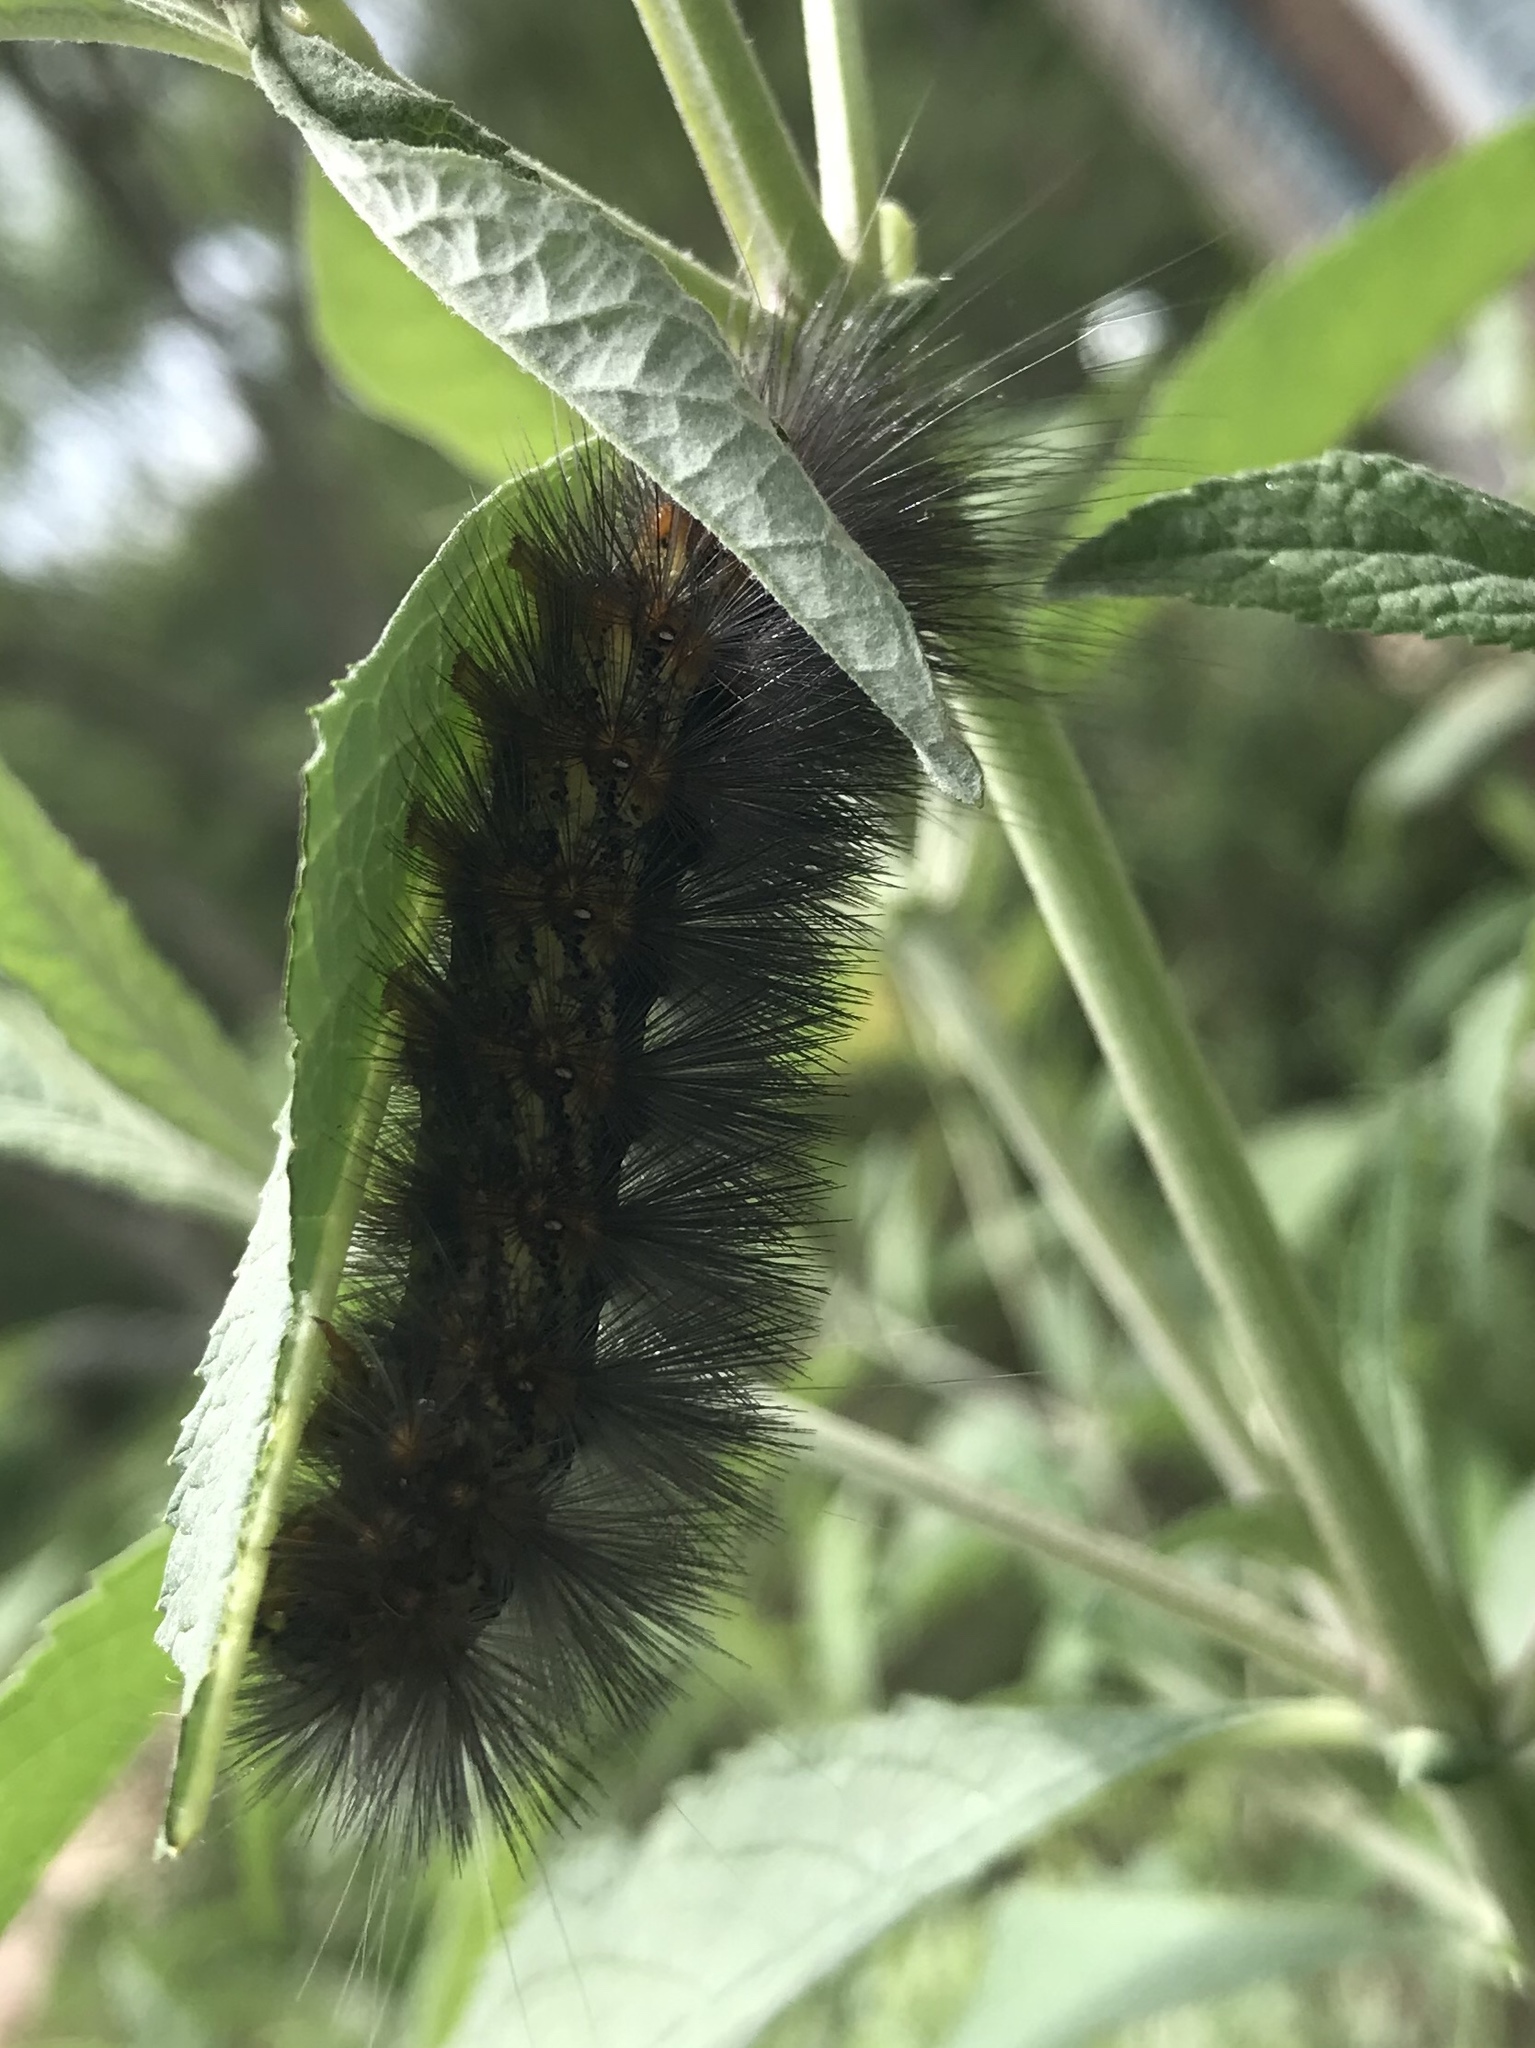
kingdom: Animalia
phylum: Arthropoda
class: Insecta
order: Lepidoptera
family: Erebidae
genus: Estigmene
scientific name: Estigmene acrea
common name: Salt marsh moth
